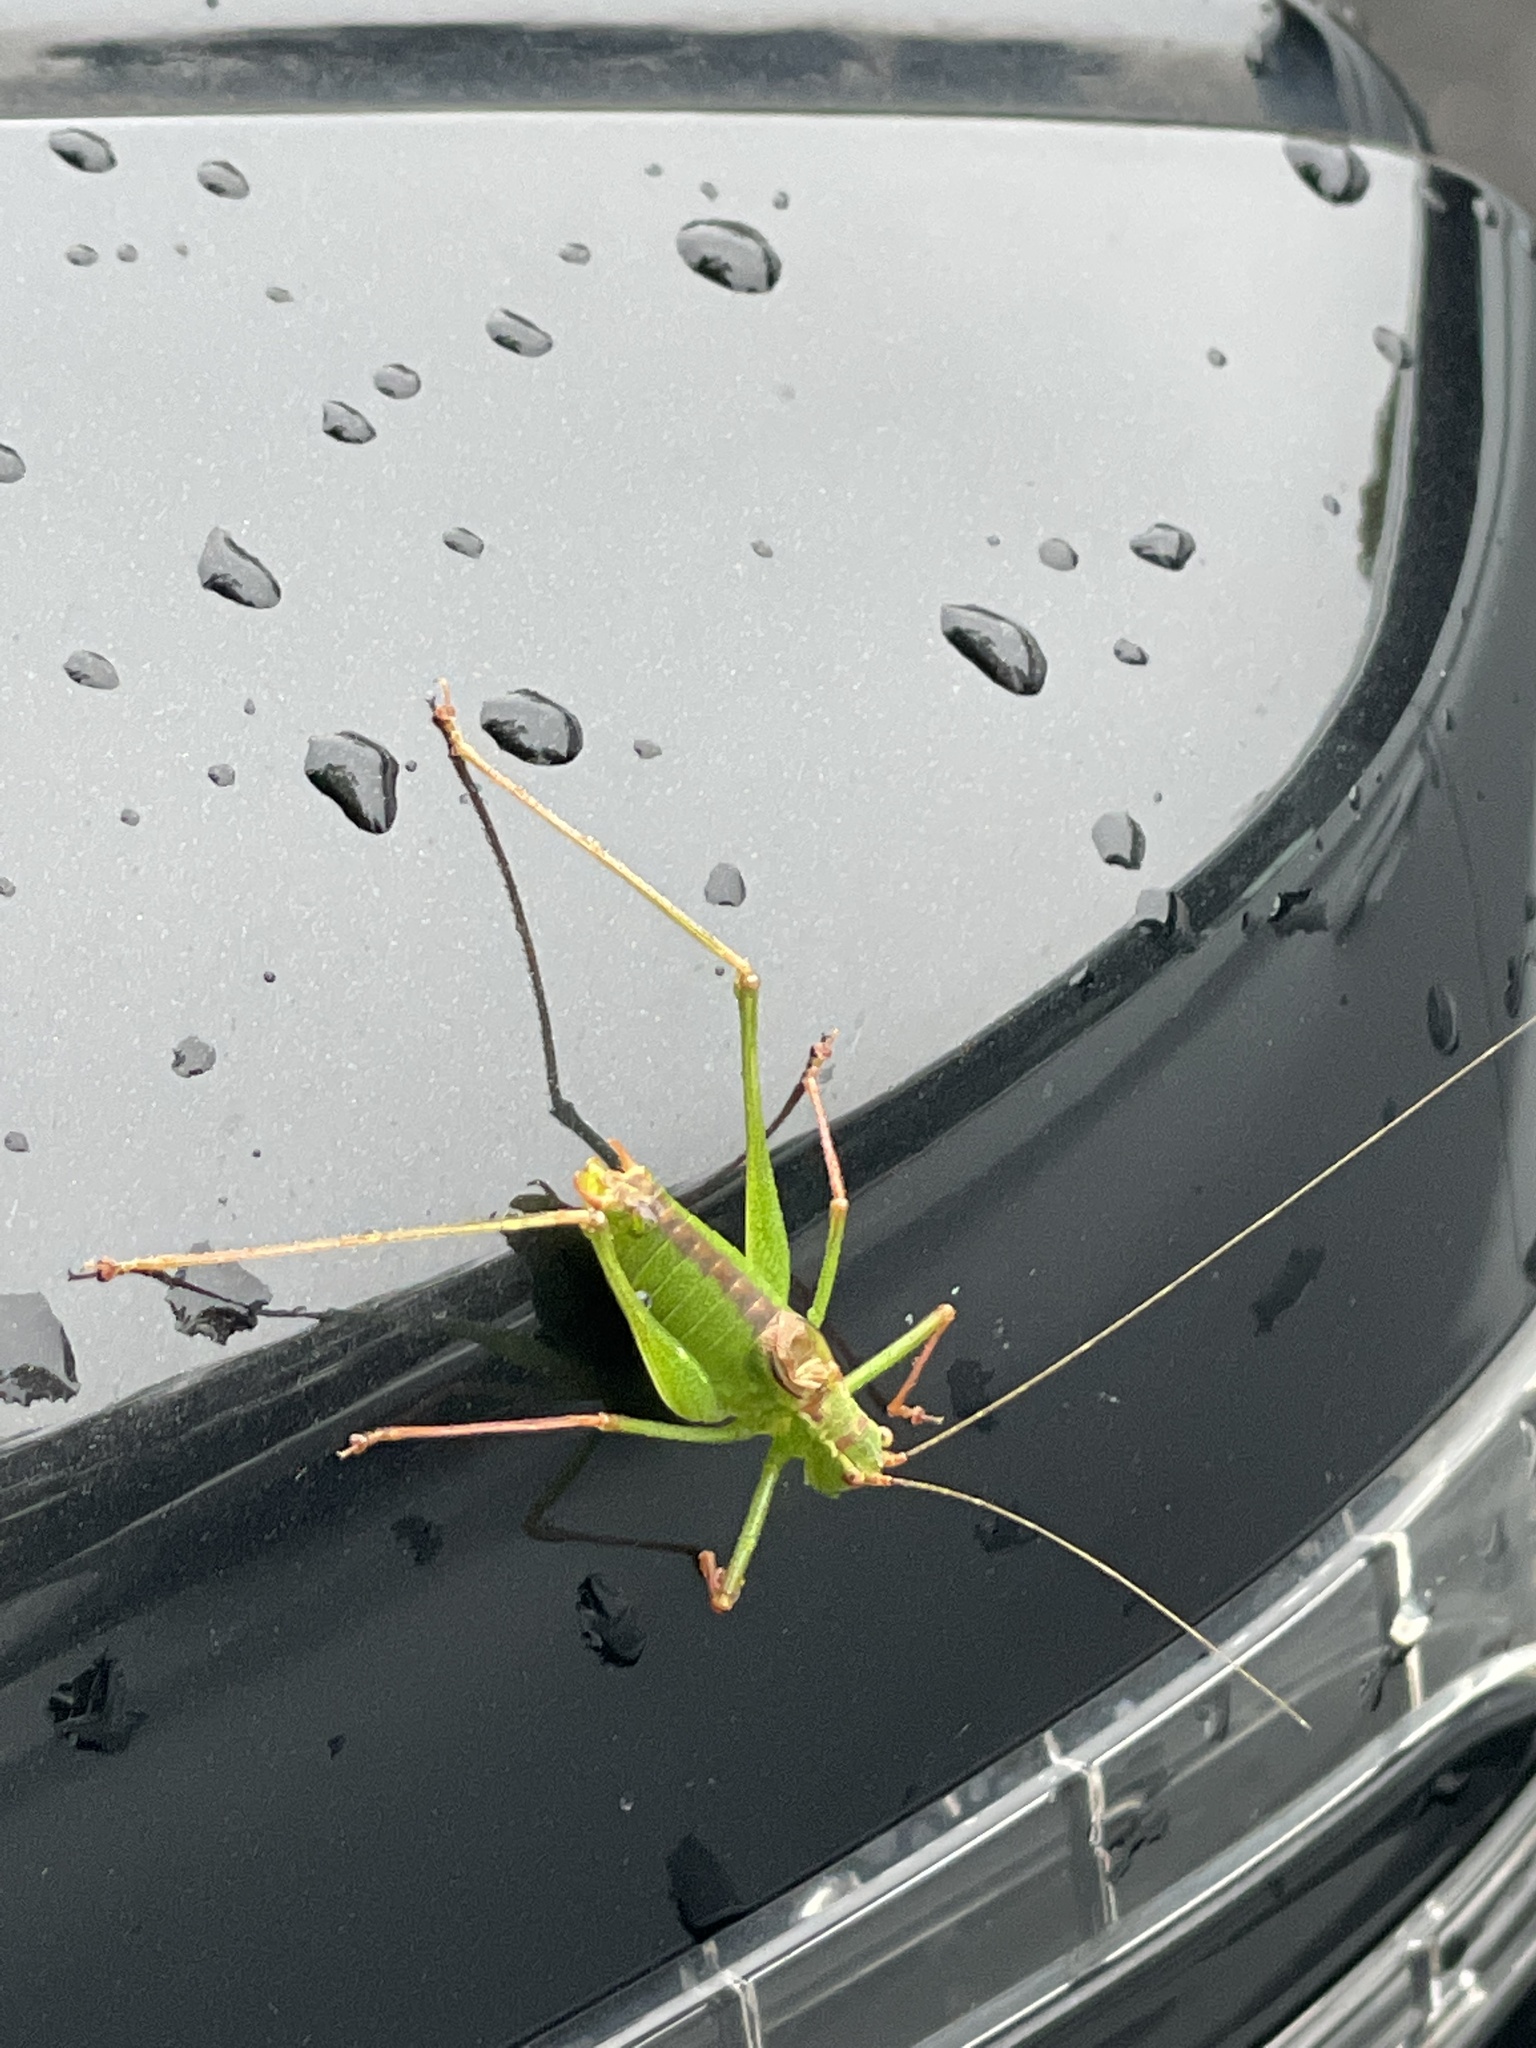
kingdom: Animalia
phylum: Arthropoda
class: Insecta
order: Orthoptera
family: Tettigoniidae
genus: Leptophyes
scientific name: Leptophyes punctatissima
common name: Speckled bush-cricket
